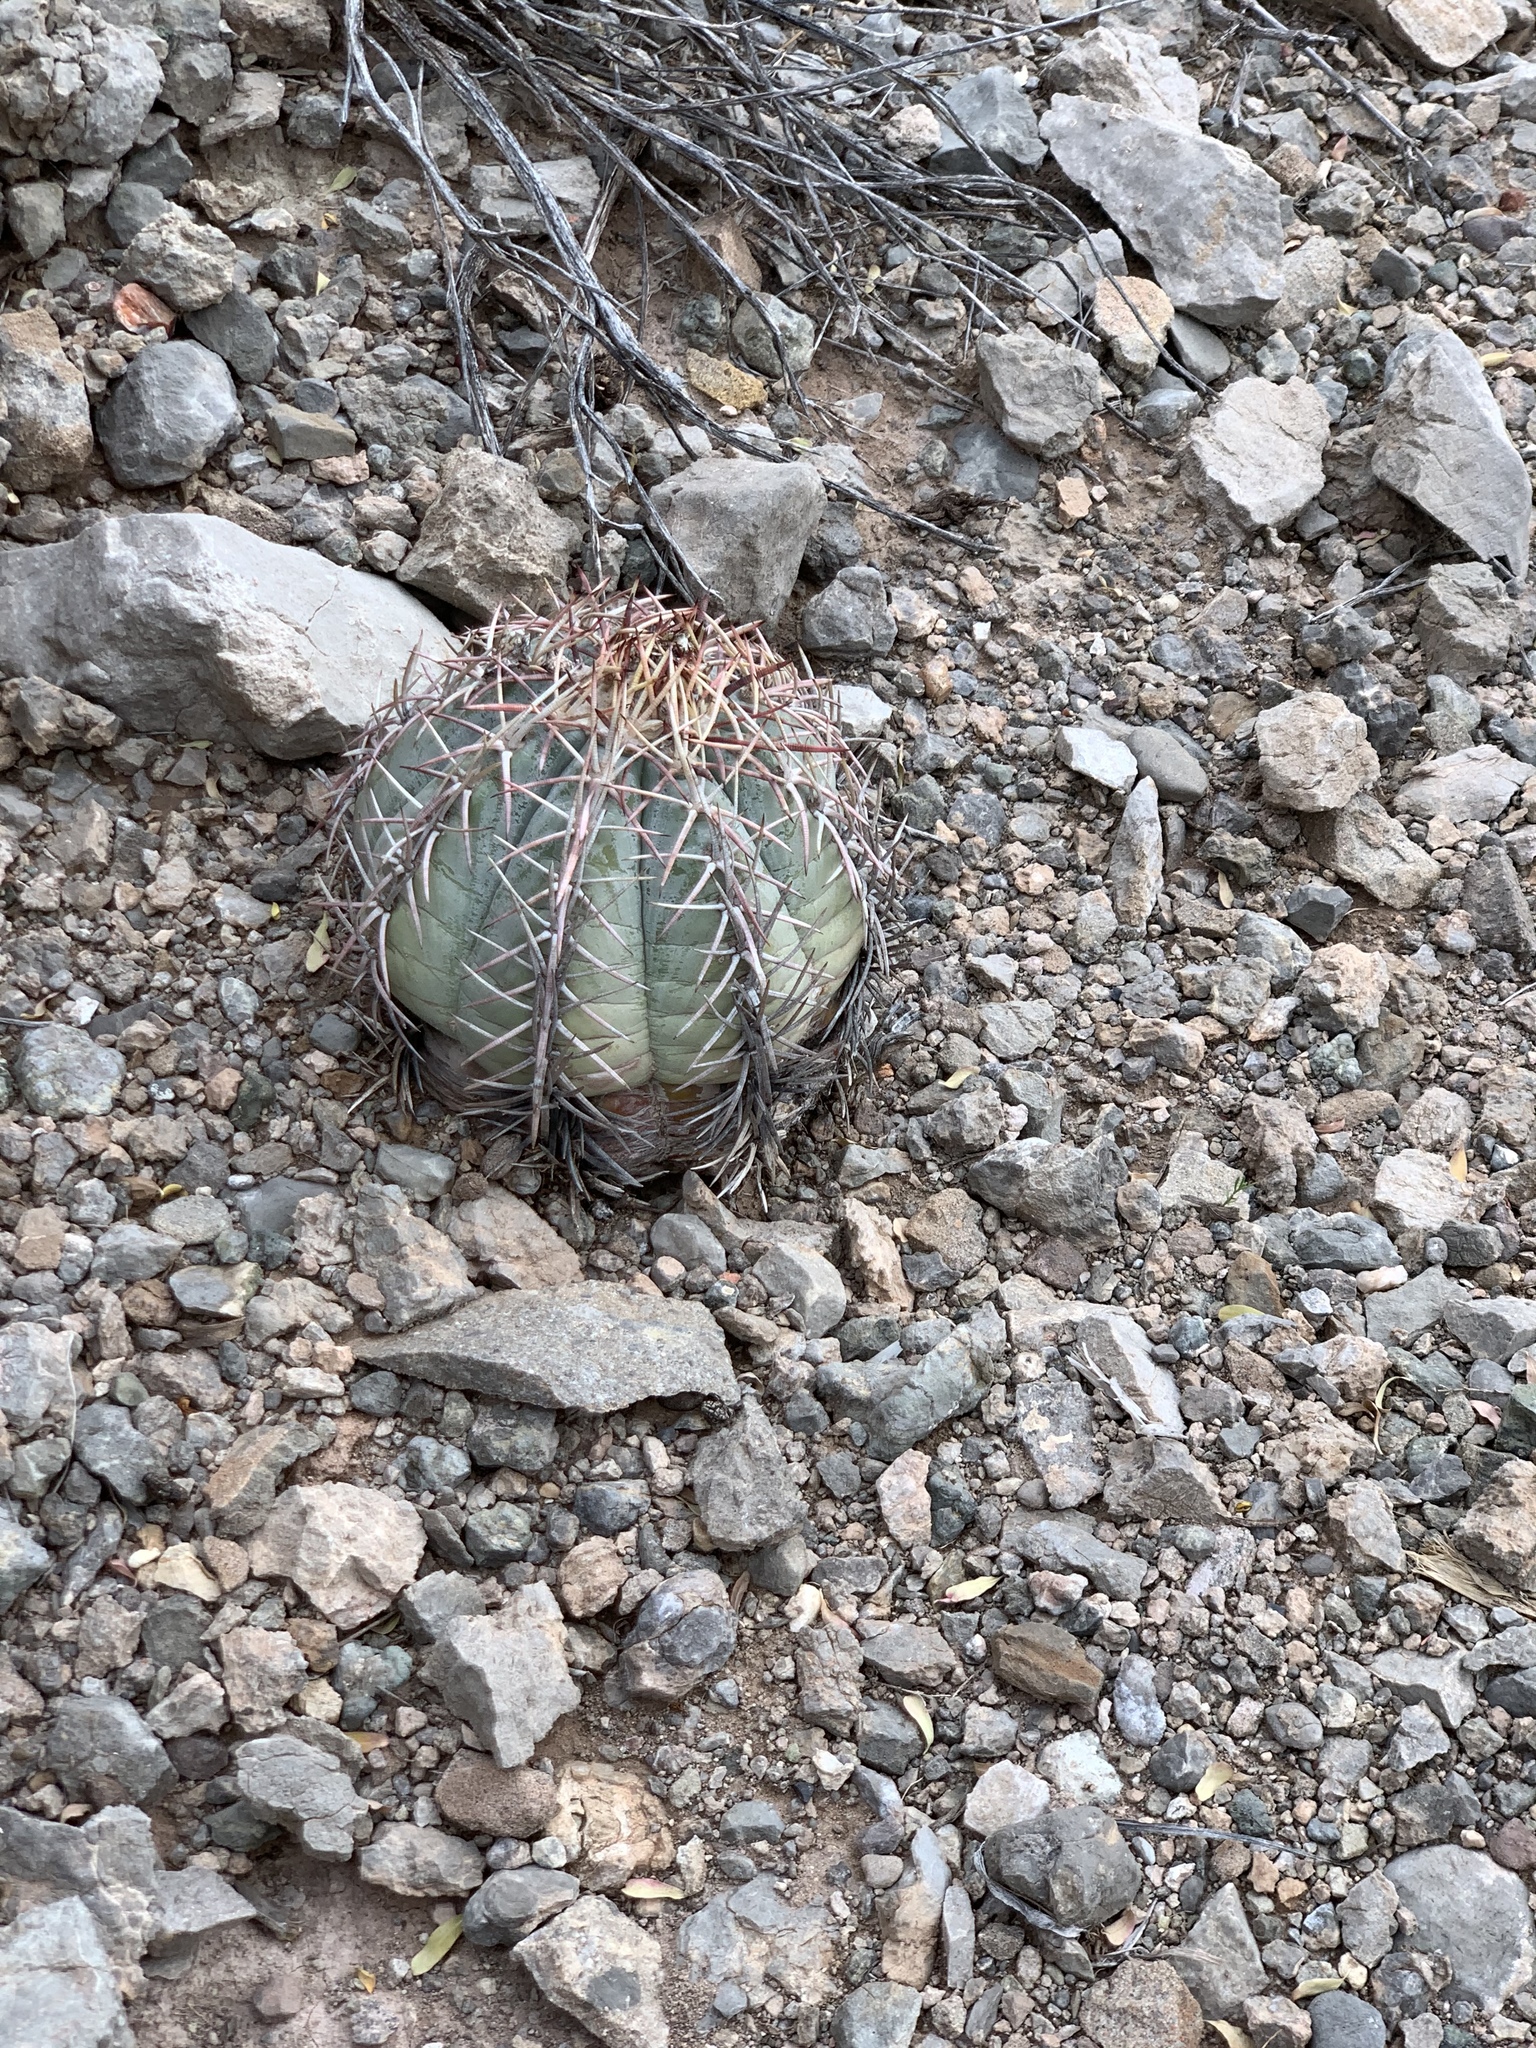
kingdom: Plantae
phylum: Tracheophyta
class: Magnoliopsida
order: Caryophyllales
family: Cactaceae
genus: Echinocactus
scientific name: Echinocactus horizonthalonius
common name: Devilshead
